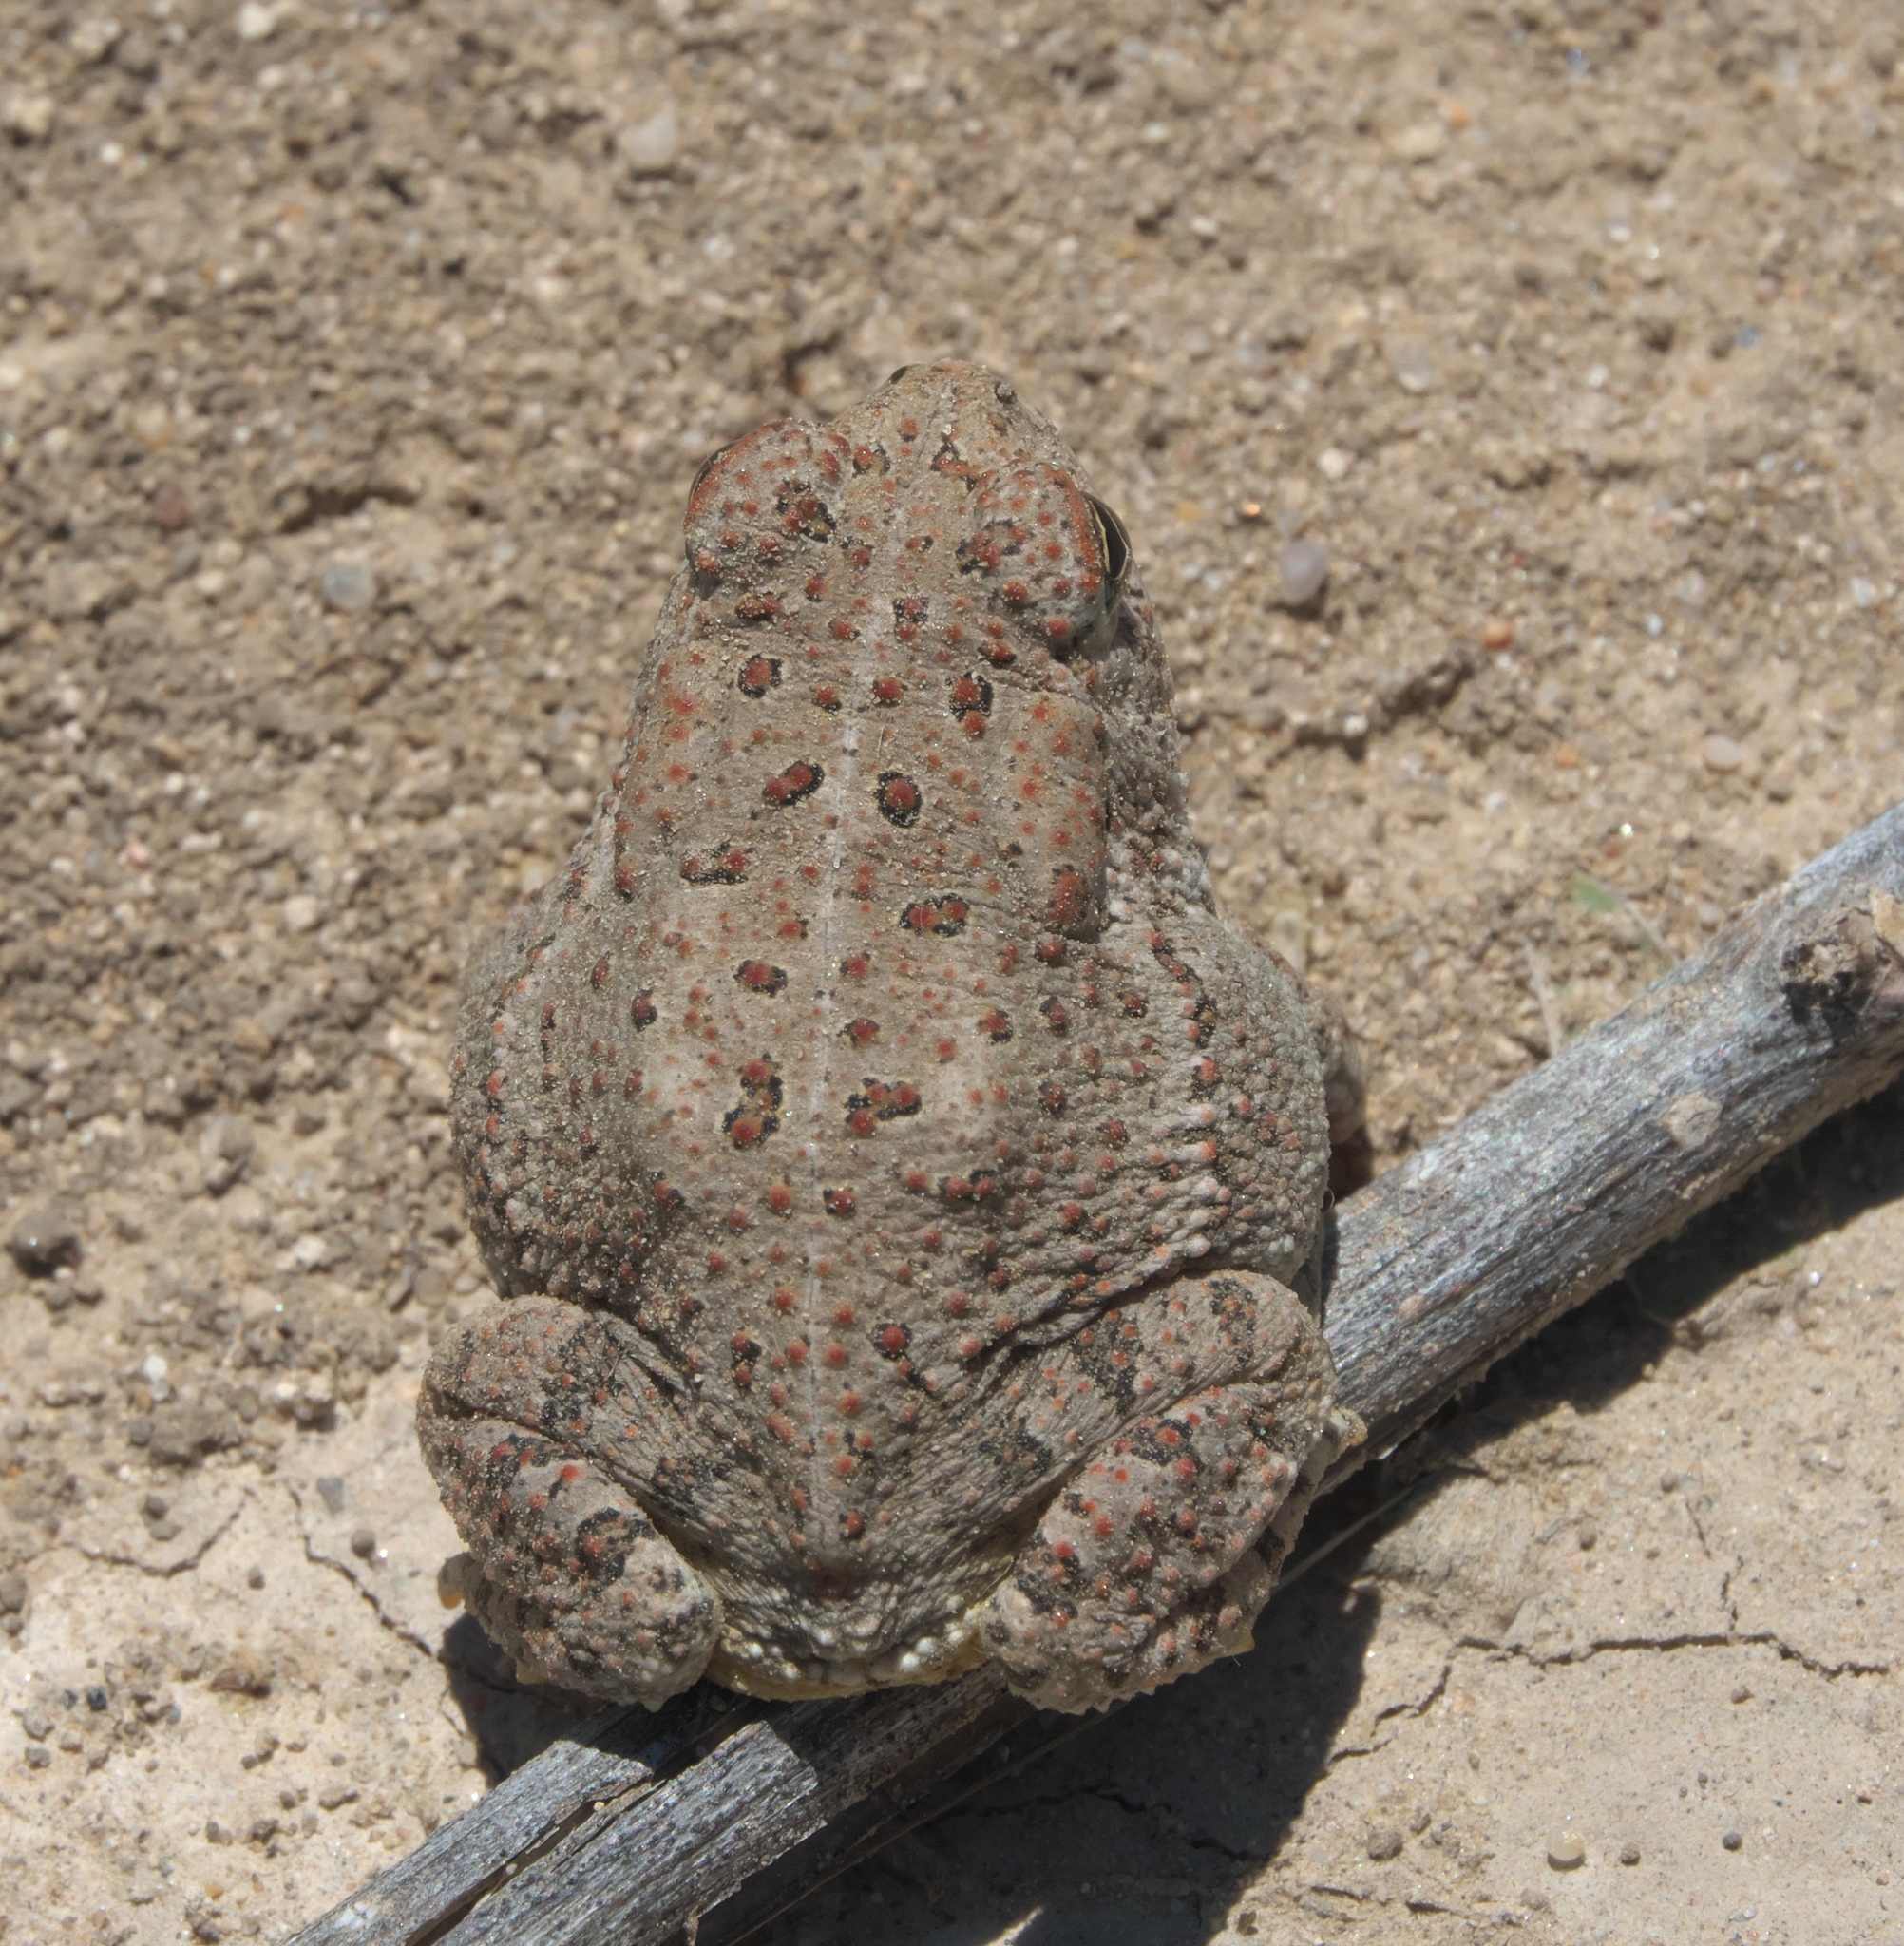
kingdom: Animalia
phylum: Chordata
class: Amphibia
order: Anura
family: Bufonidae
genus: Anaxyrus
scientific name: Anaxyrus woodhousii
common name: Woodhouse's toad
